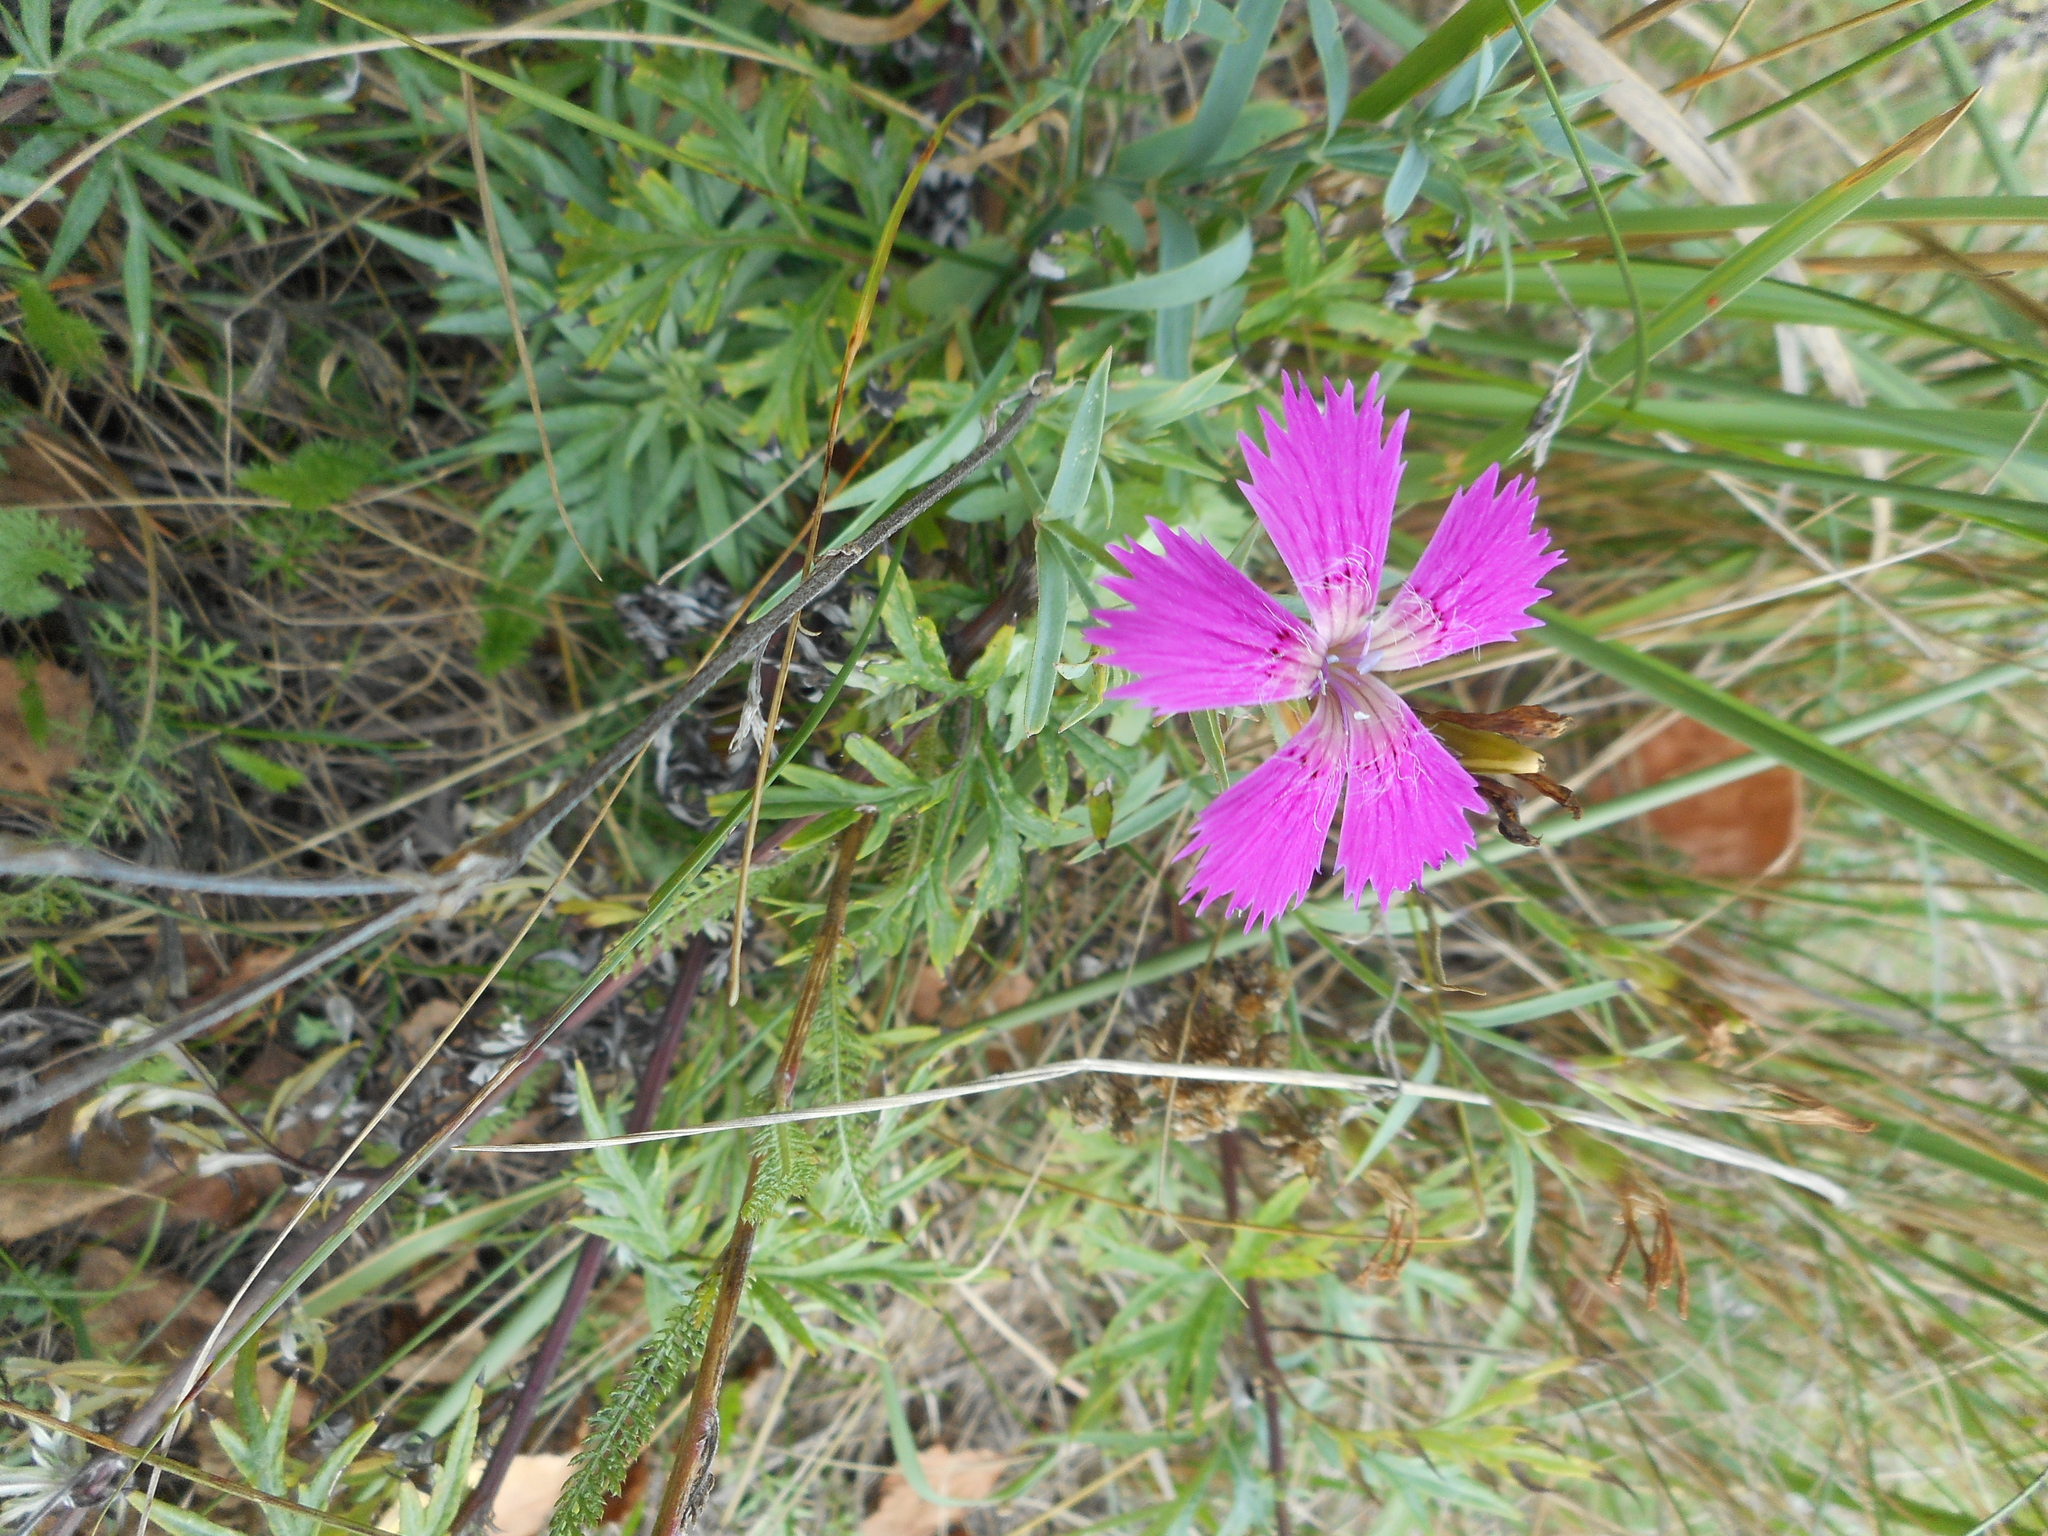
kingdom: Plantae
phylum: Tracheophyta
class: Magnoliopsida
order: Caryophyllales
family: Caryophyllaceae
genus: Dianthus
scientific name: Dianthus chinensis
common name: Rainbow pink
